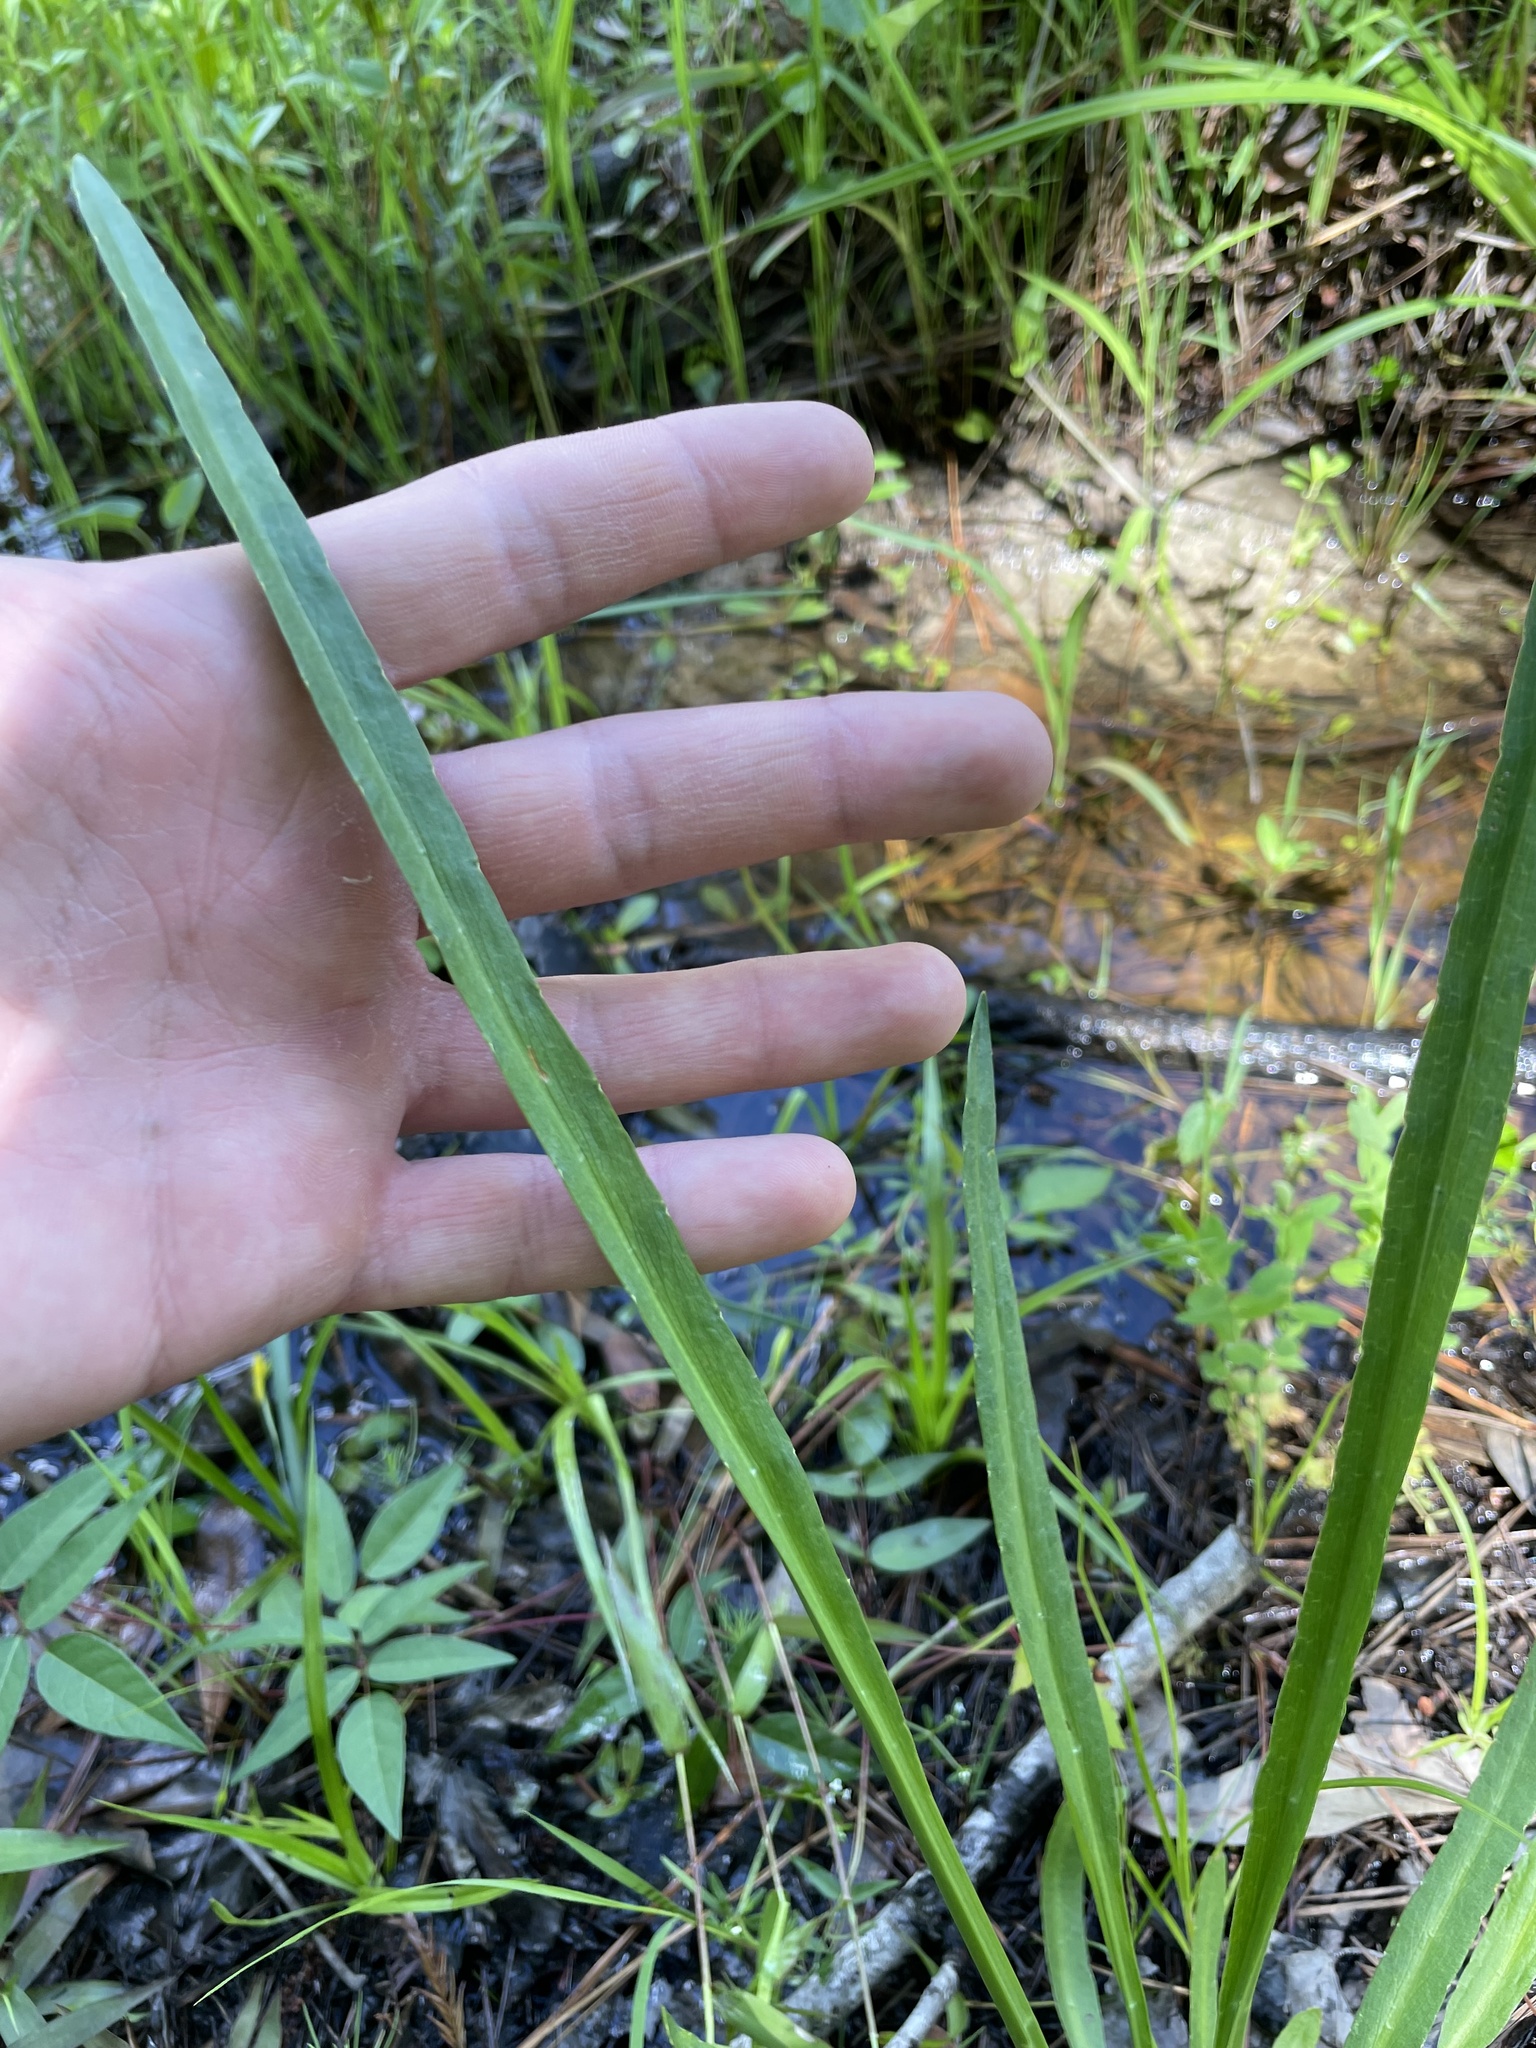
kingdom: Plantae
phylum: Tracheophyta
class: Magnoliopsida
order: Apiales
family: Apiaceae
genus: Eryngium
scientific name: Eryngium aquaticum
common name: Water eryngo
